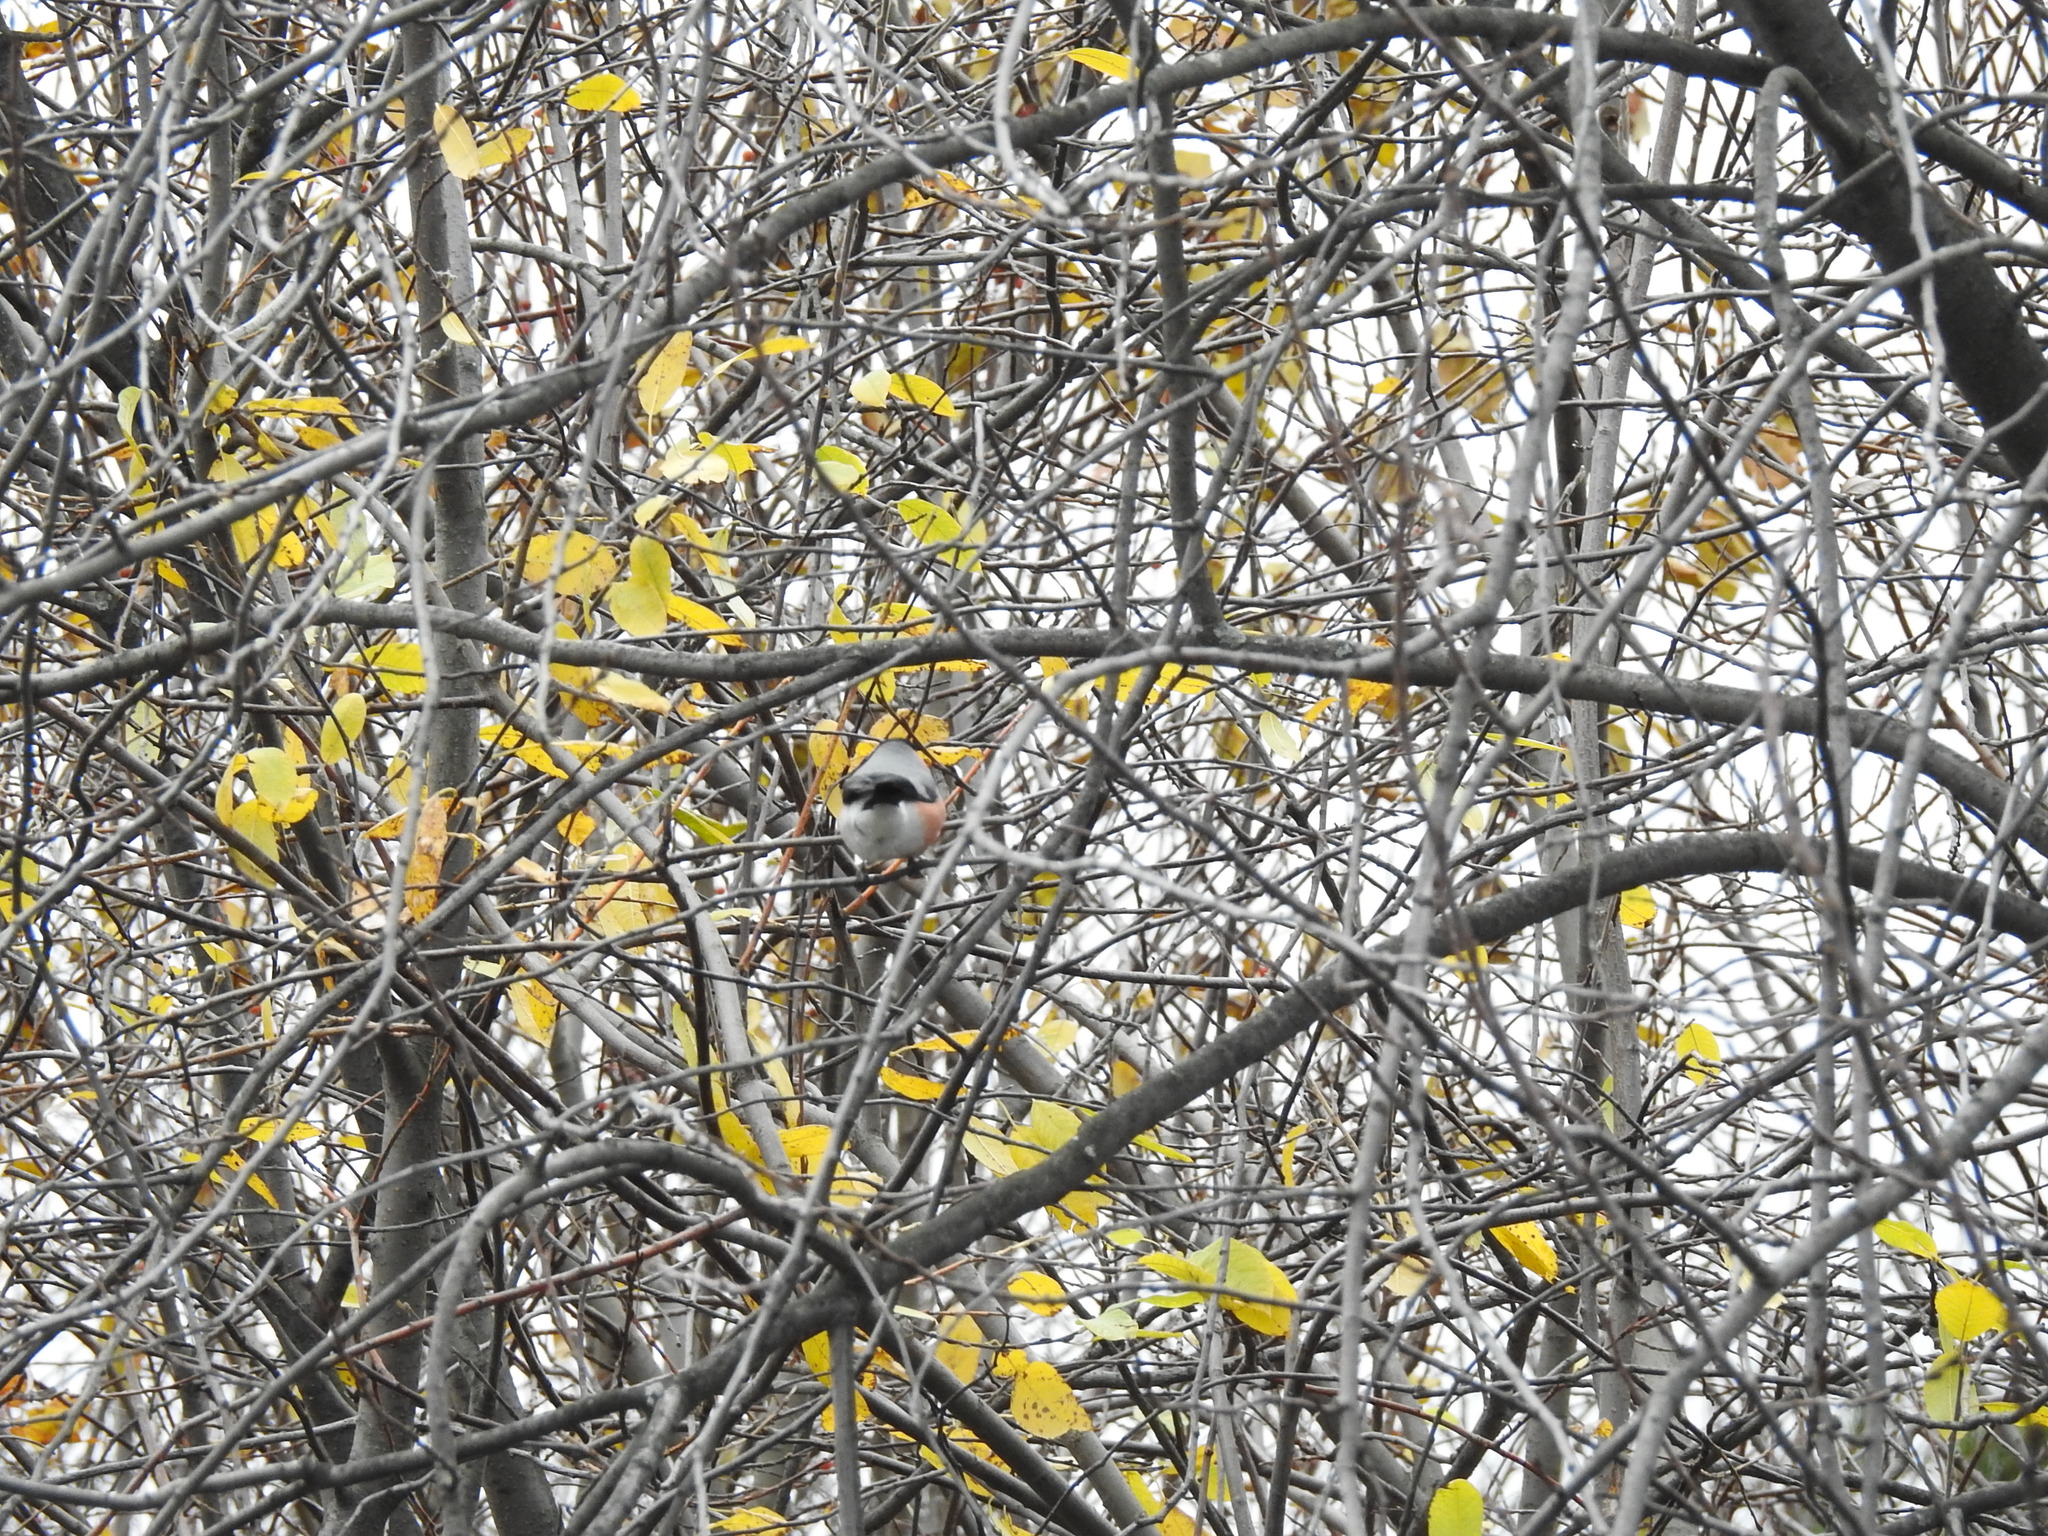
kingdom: Animalia
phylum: Chordata
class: Aves
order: Passeriformes
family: Fringillidae
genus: Pyrrhula
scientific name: Pyrrhula pyrrhula
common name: Eurasian bullfinch
